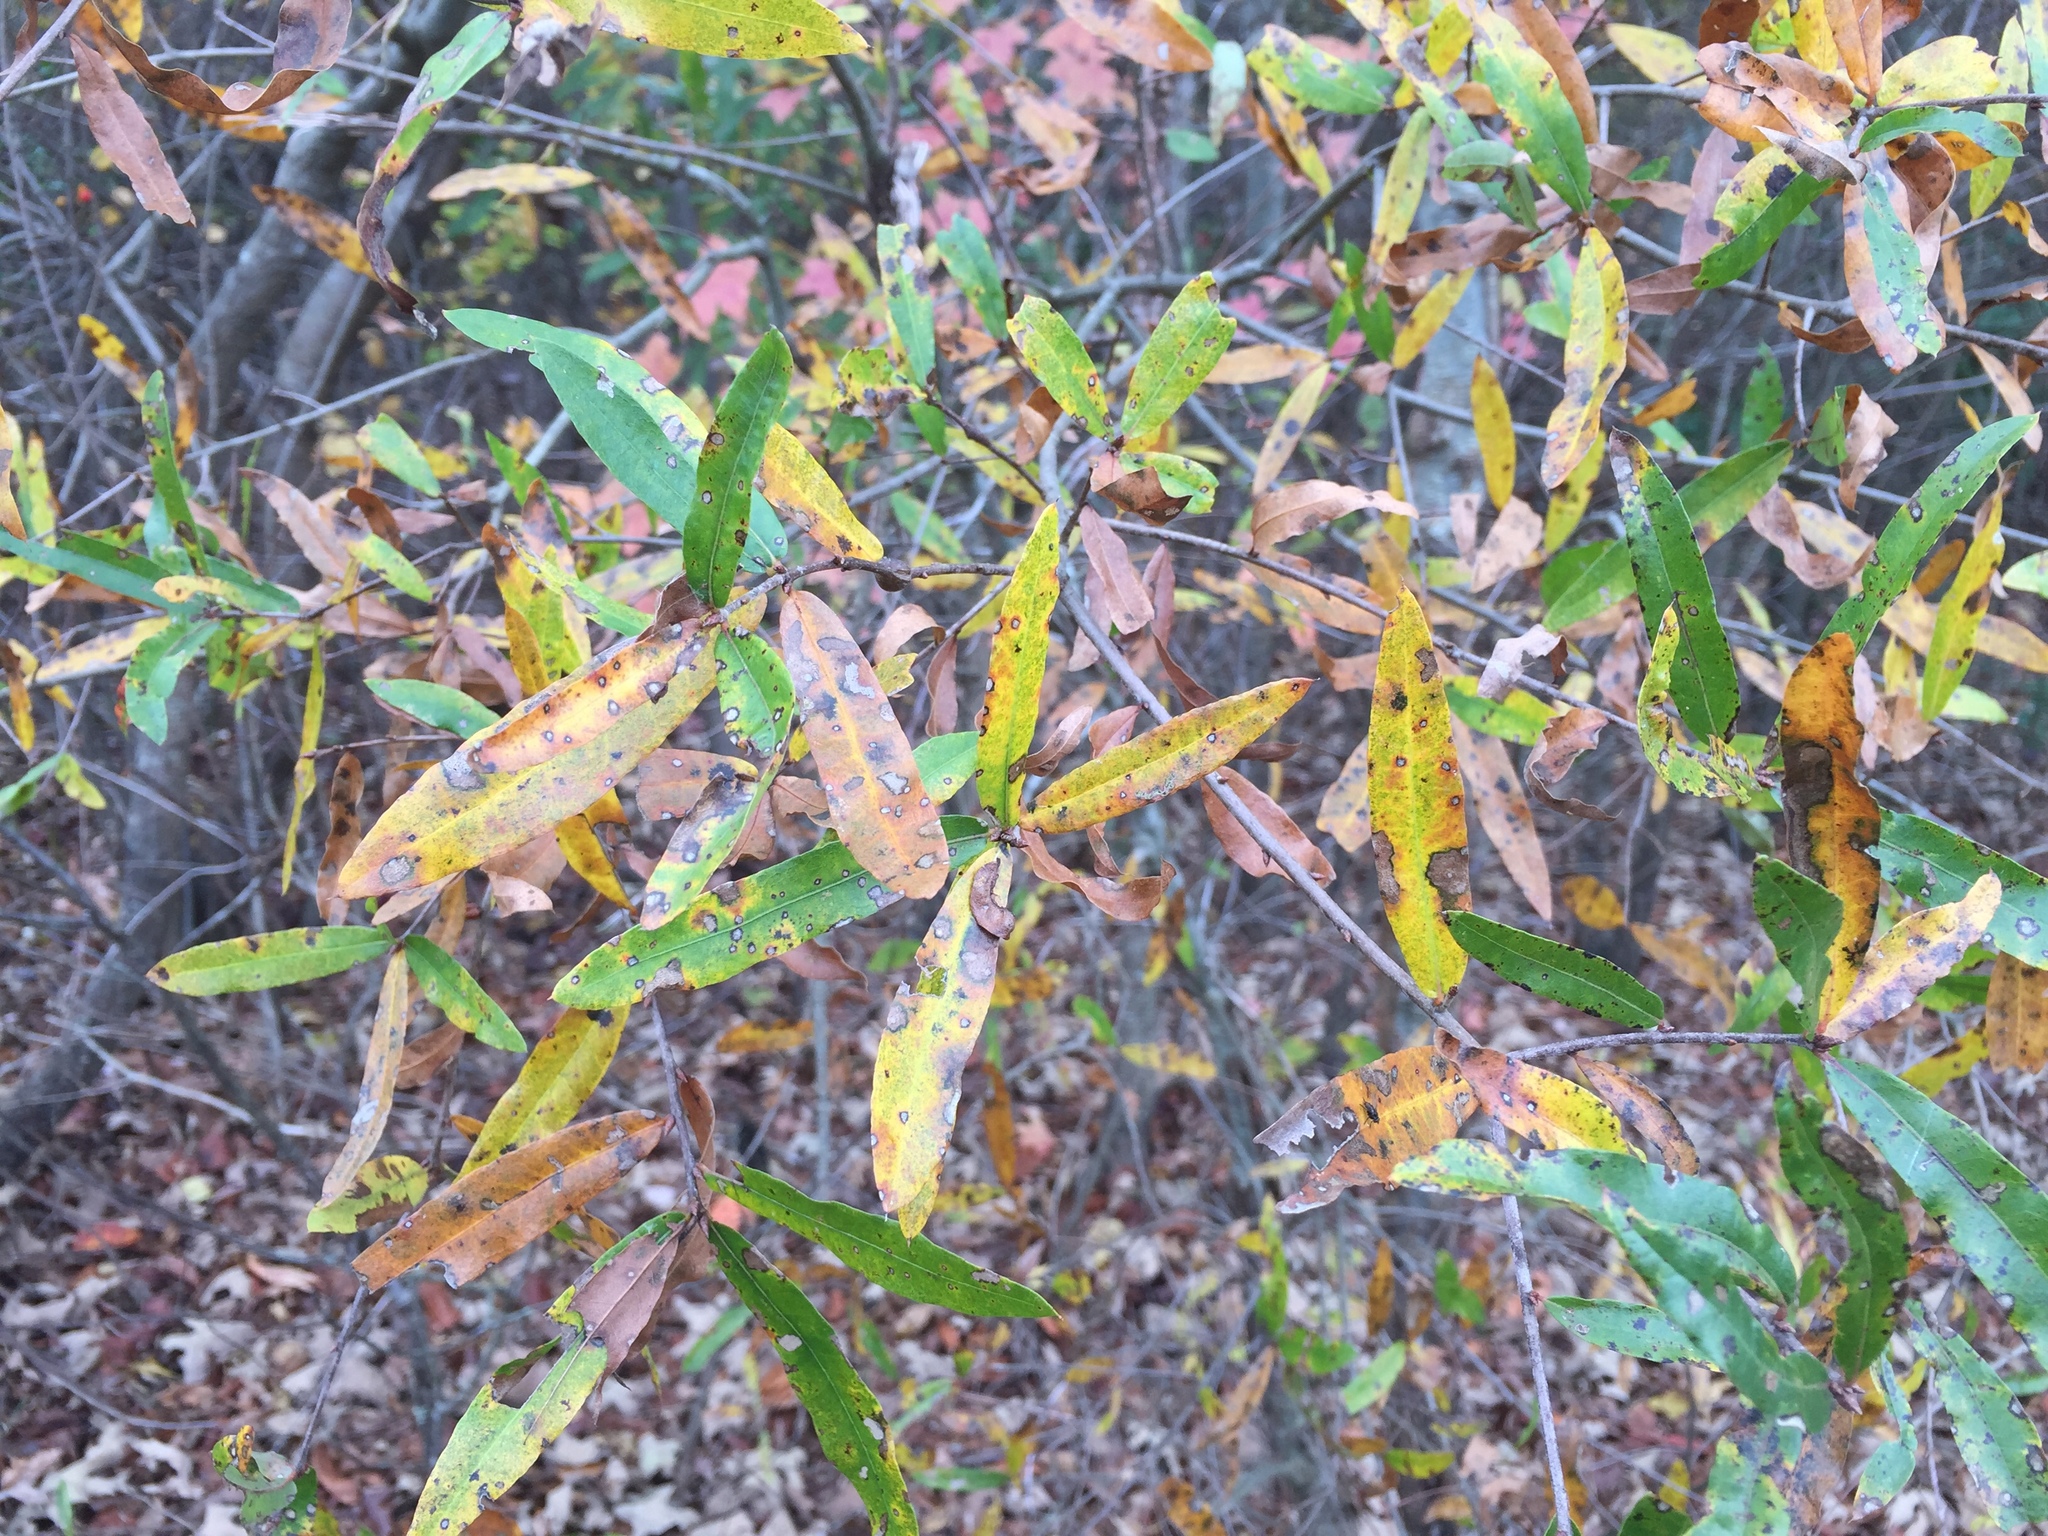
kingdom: Plantae
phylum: Tracheophyta
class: Magnoliopsida
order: Fagales
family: Fagaceae
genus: Quercus
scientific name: Quercus phellos
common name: Willow oak
